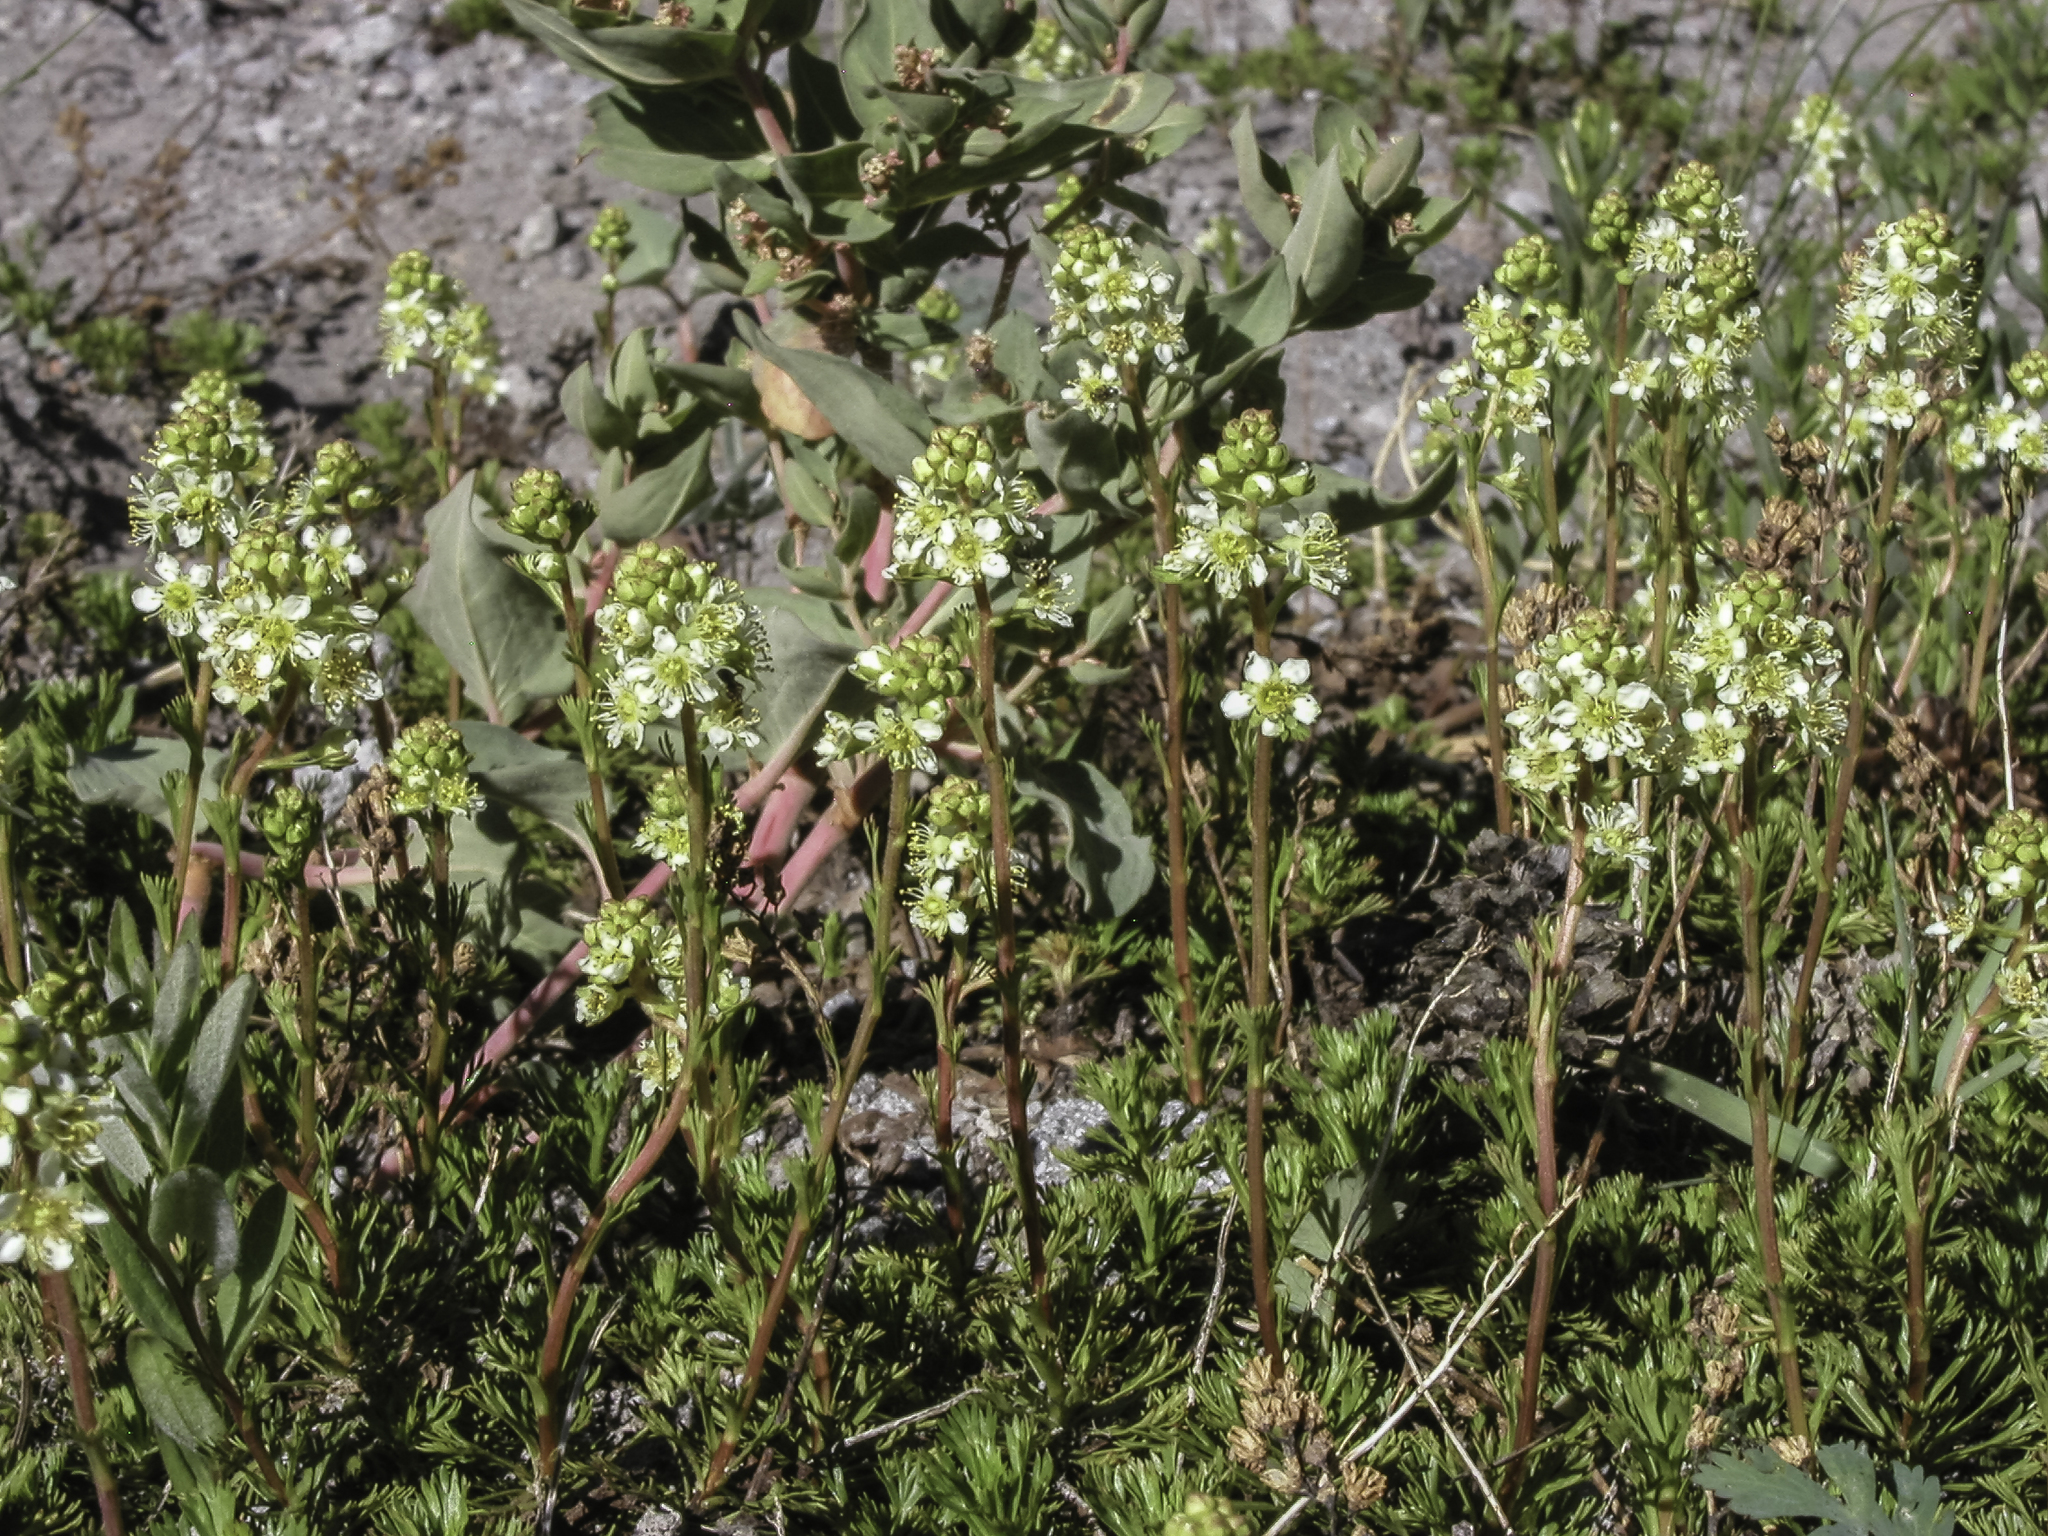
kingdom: Plantae
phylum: Tracheophyta
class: Magnoliopsida
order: Rosales
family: Rosaceae
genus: Luetkea
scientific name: Luetkea pectinata
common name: Partridgefoot
